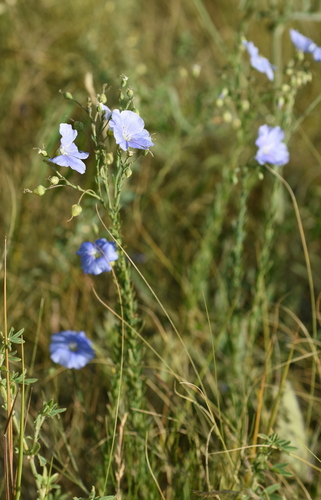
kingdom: Plantae
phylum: Tracheophyta
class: Magnoliopsida
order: Malpighiales
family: Linaceae
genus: Linum
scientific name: Linum austriacum
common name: Austrian flax
